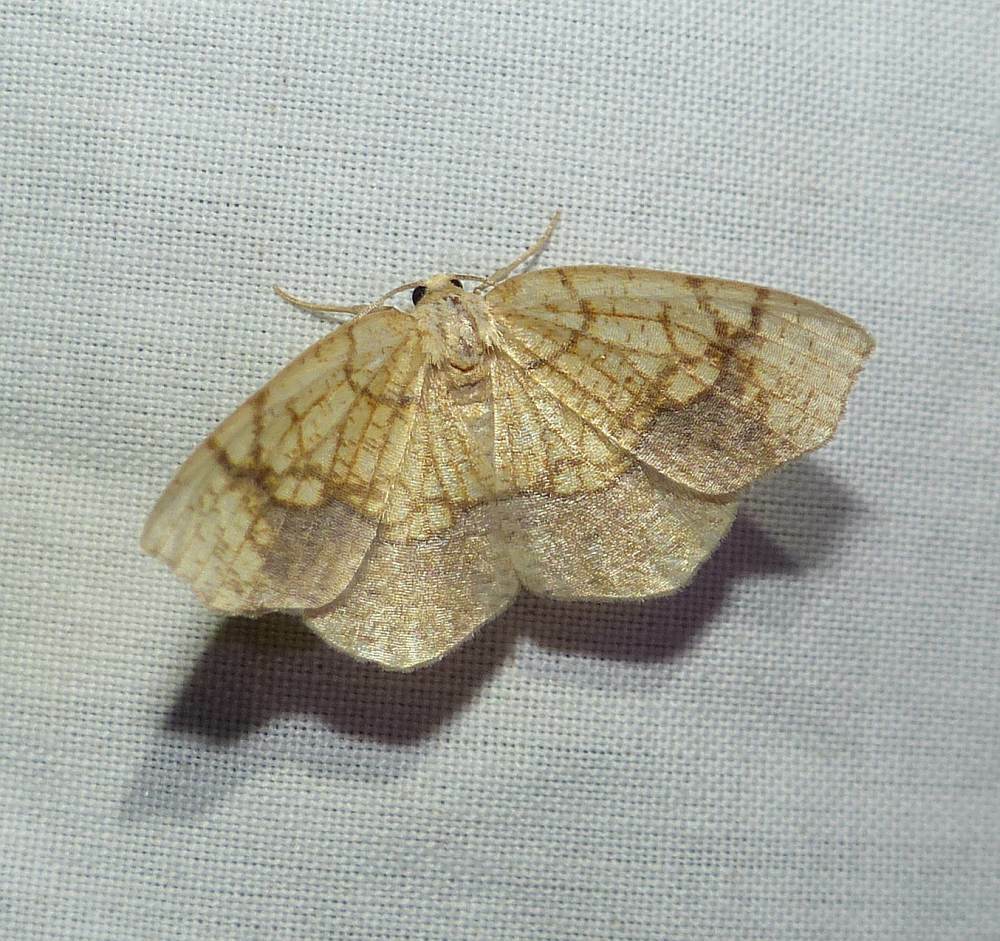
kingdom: Animalia
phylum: Arthropoda
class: Insecta
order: Lepidoptera
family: Geometridae
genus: Nematocampa
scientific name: Nematocampa resistaria
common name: Horned spanworm moth
